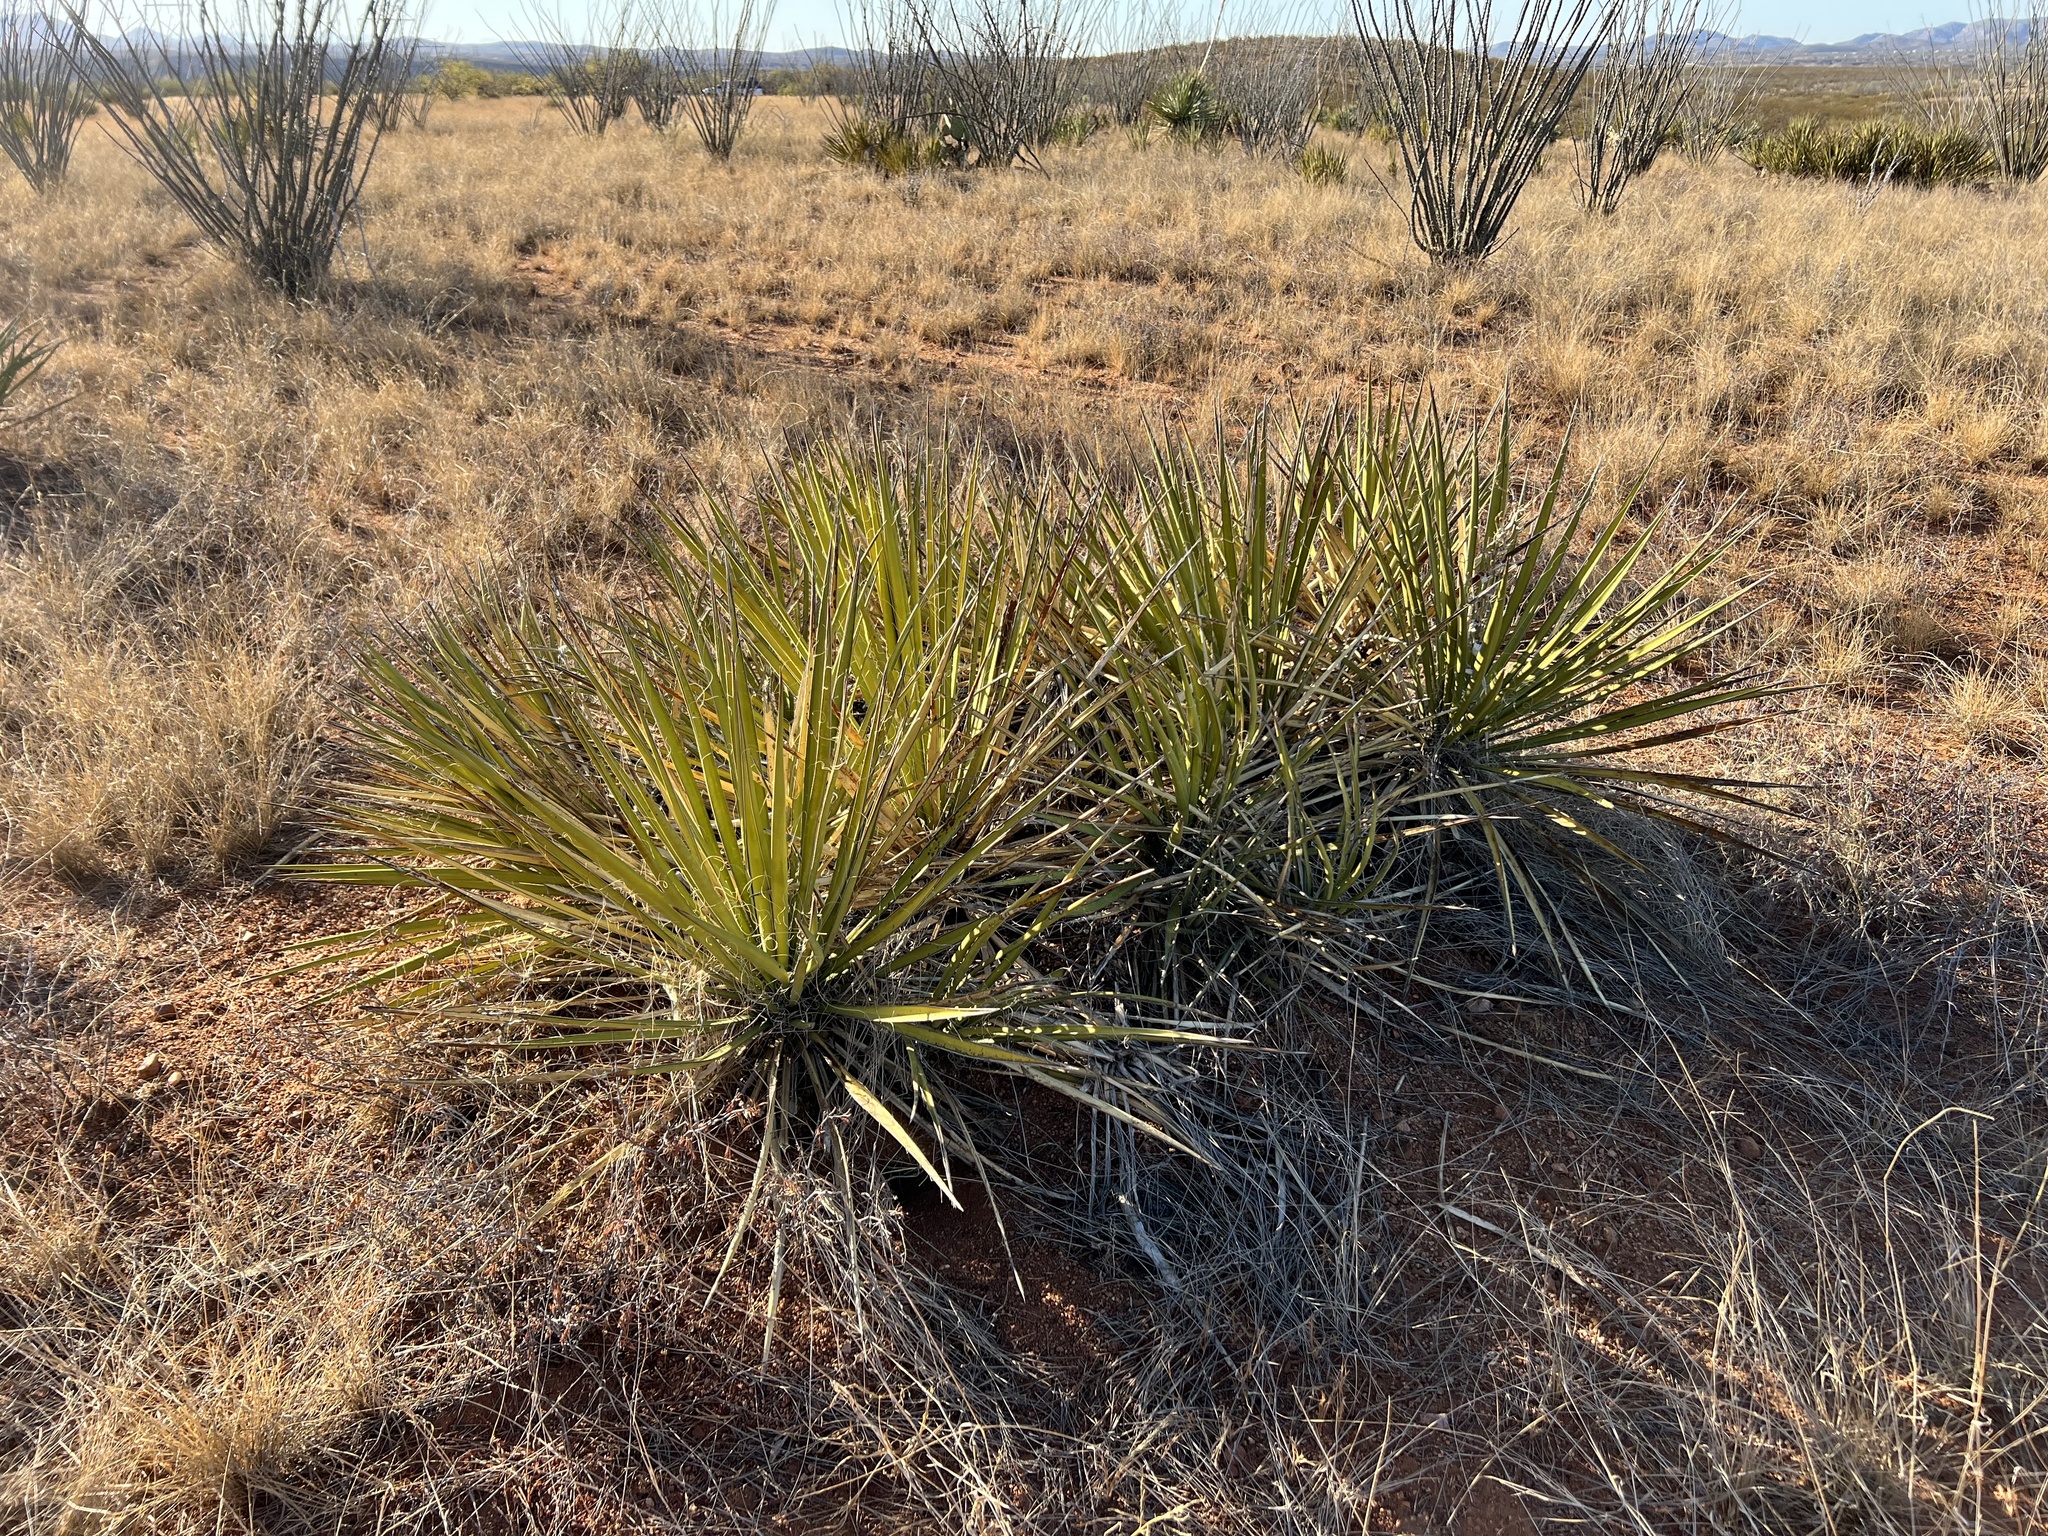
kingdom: Plantae
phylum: Tracheophyta
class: Liliopsida
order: Asparagales
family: Asparagaceae
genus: Yucca
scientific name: Yucca baccata
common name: Banana yucca
